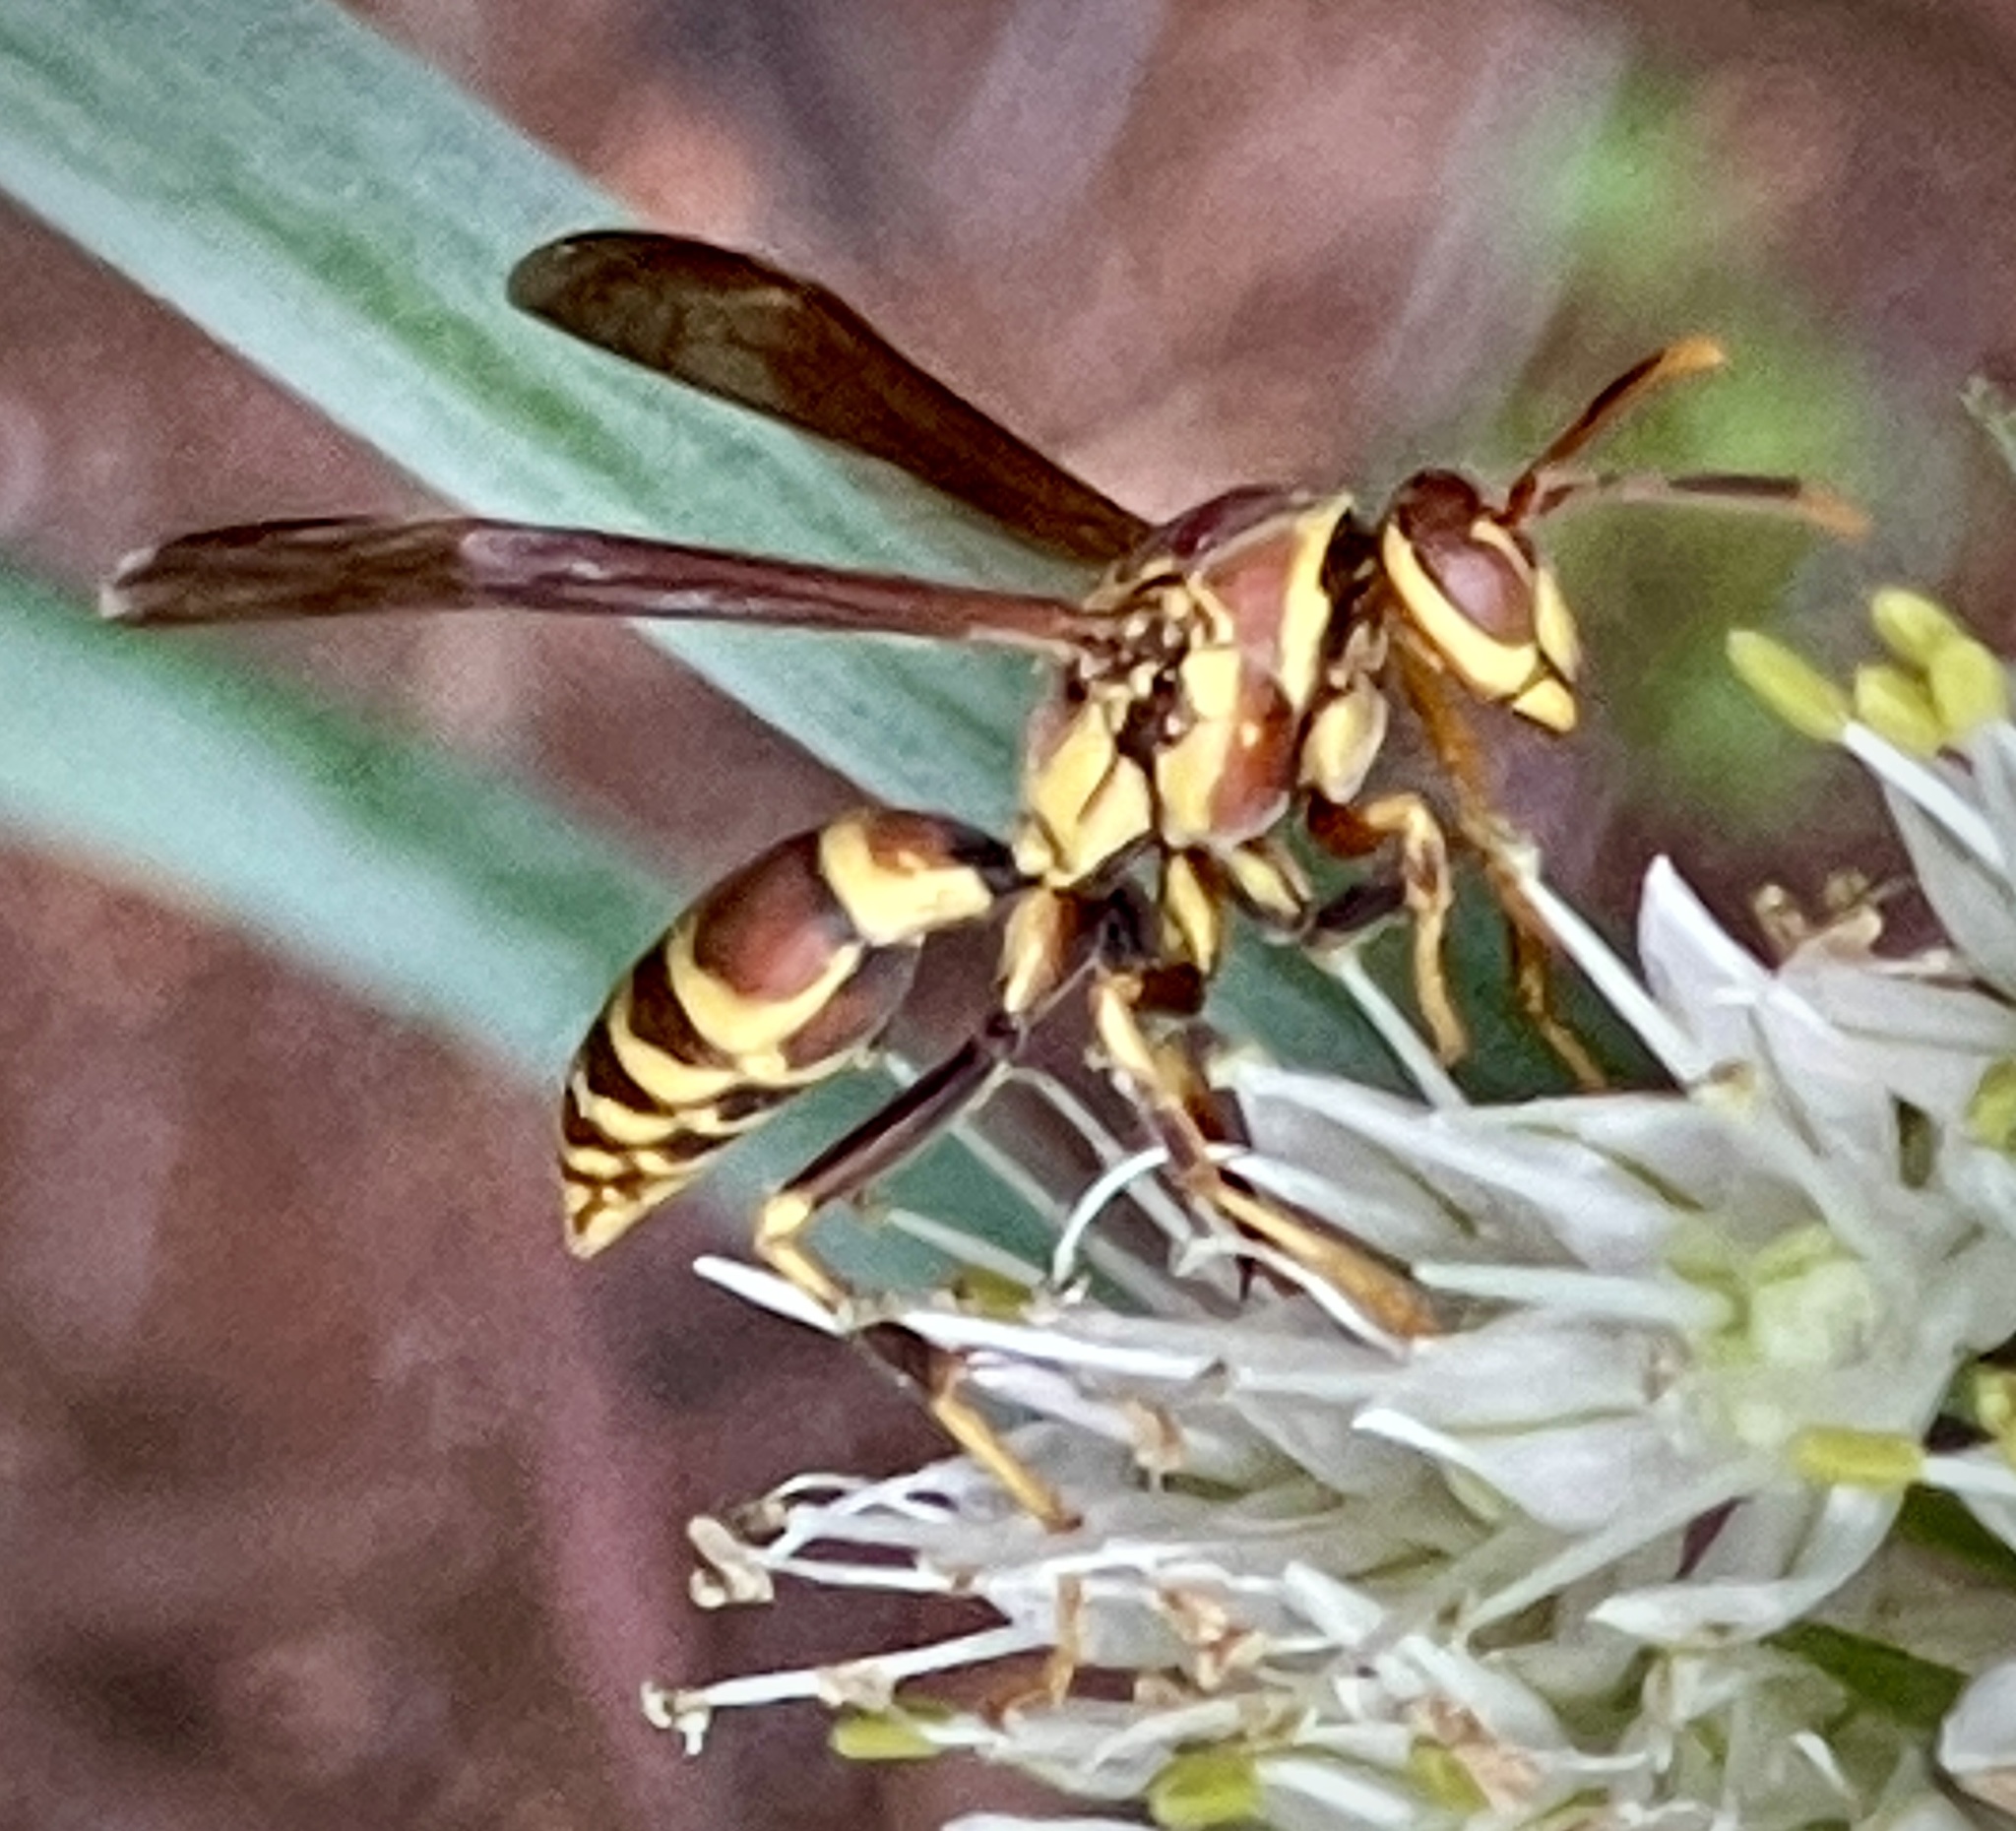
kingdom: Animalia
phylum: Arthropoda
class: Insecta
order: Hymenoptera
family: Eumenidae
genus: Polistes
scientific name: Polistes exclamans
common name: Paper wasp
